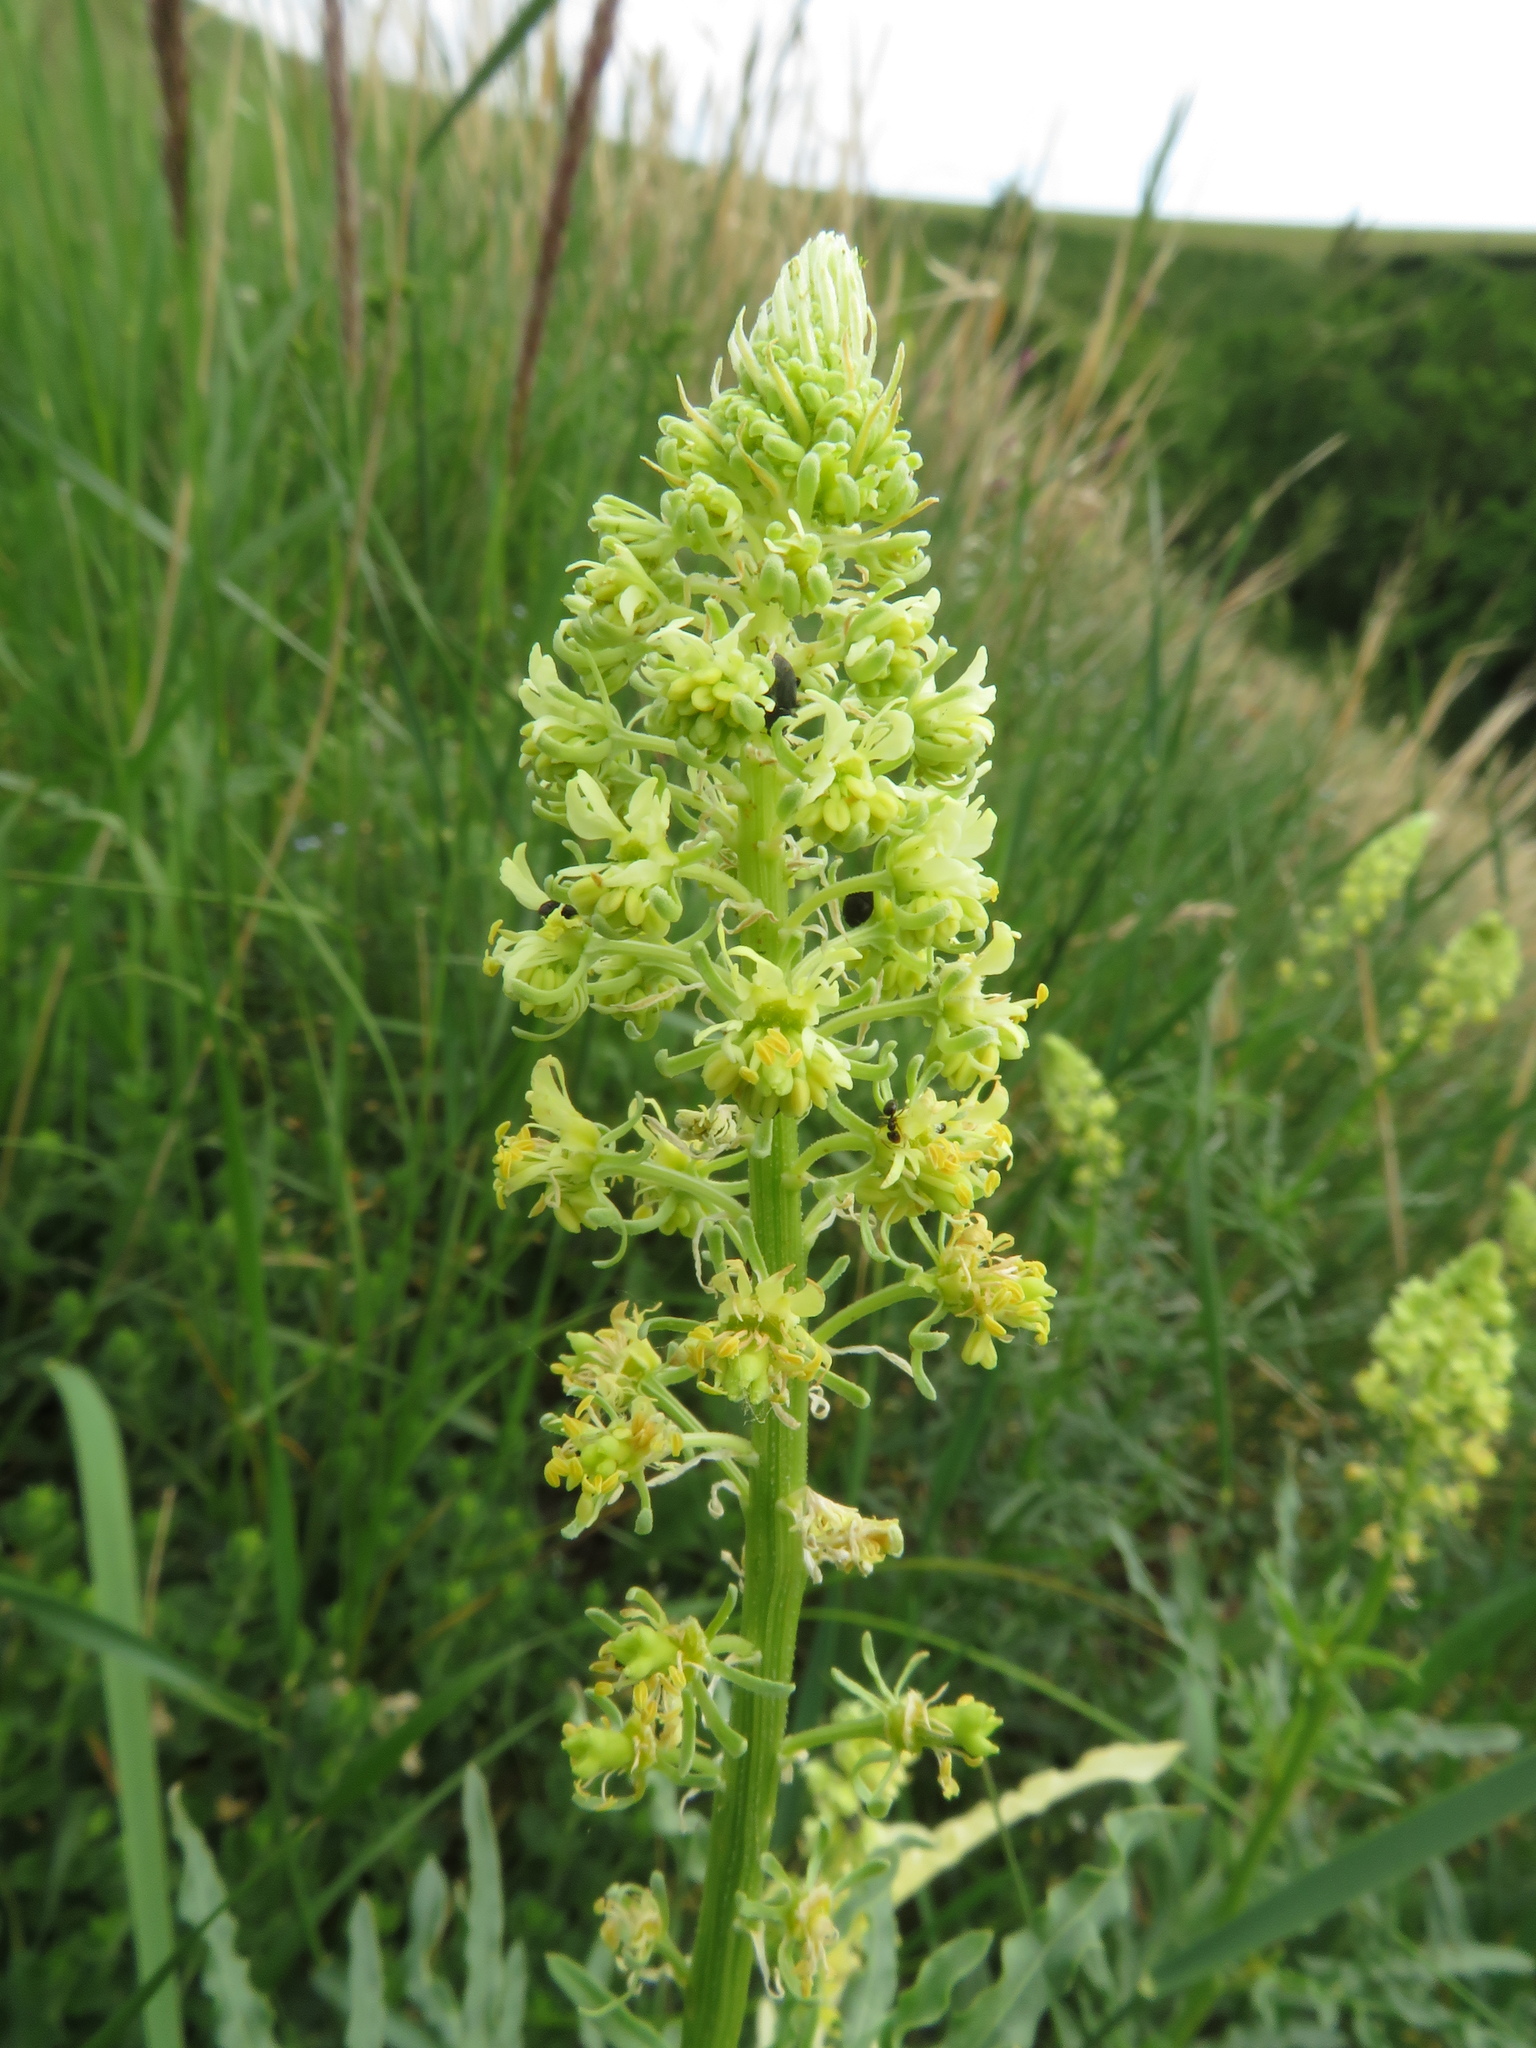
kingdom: Plantae
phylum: Tracheophyta
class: Magnoliopsida
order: Brassicales
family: Resedaceae
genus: Reseda
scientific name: Reseda lutea
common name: Wild mignonette
